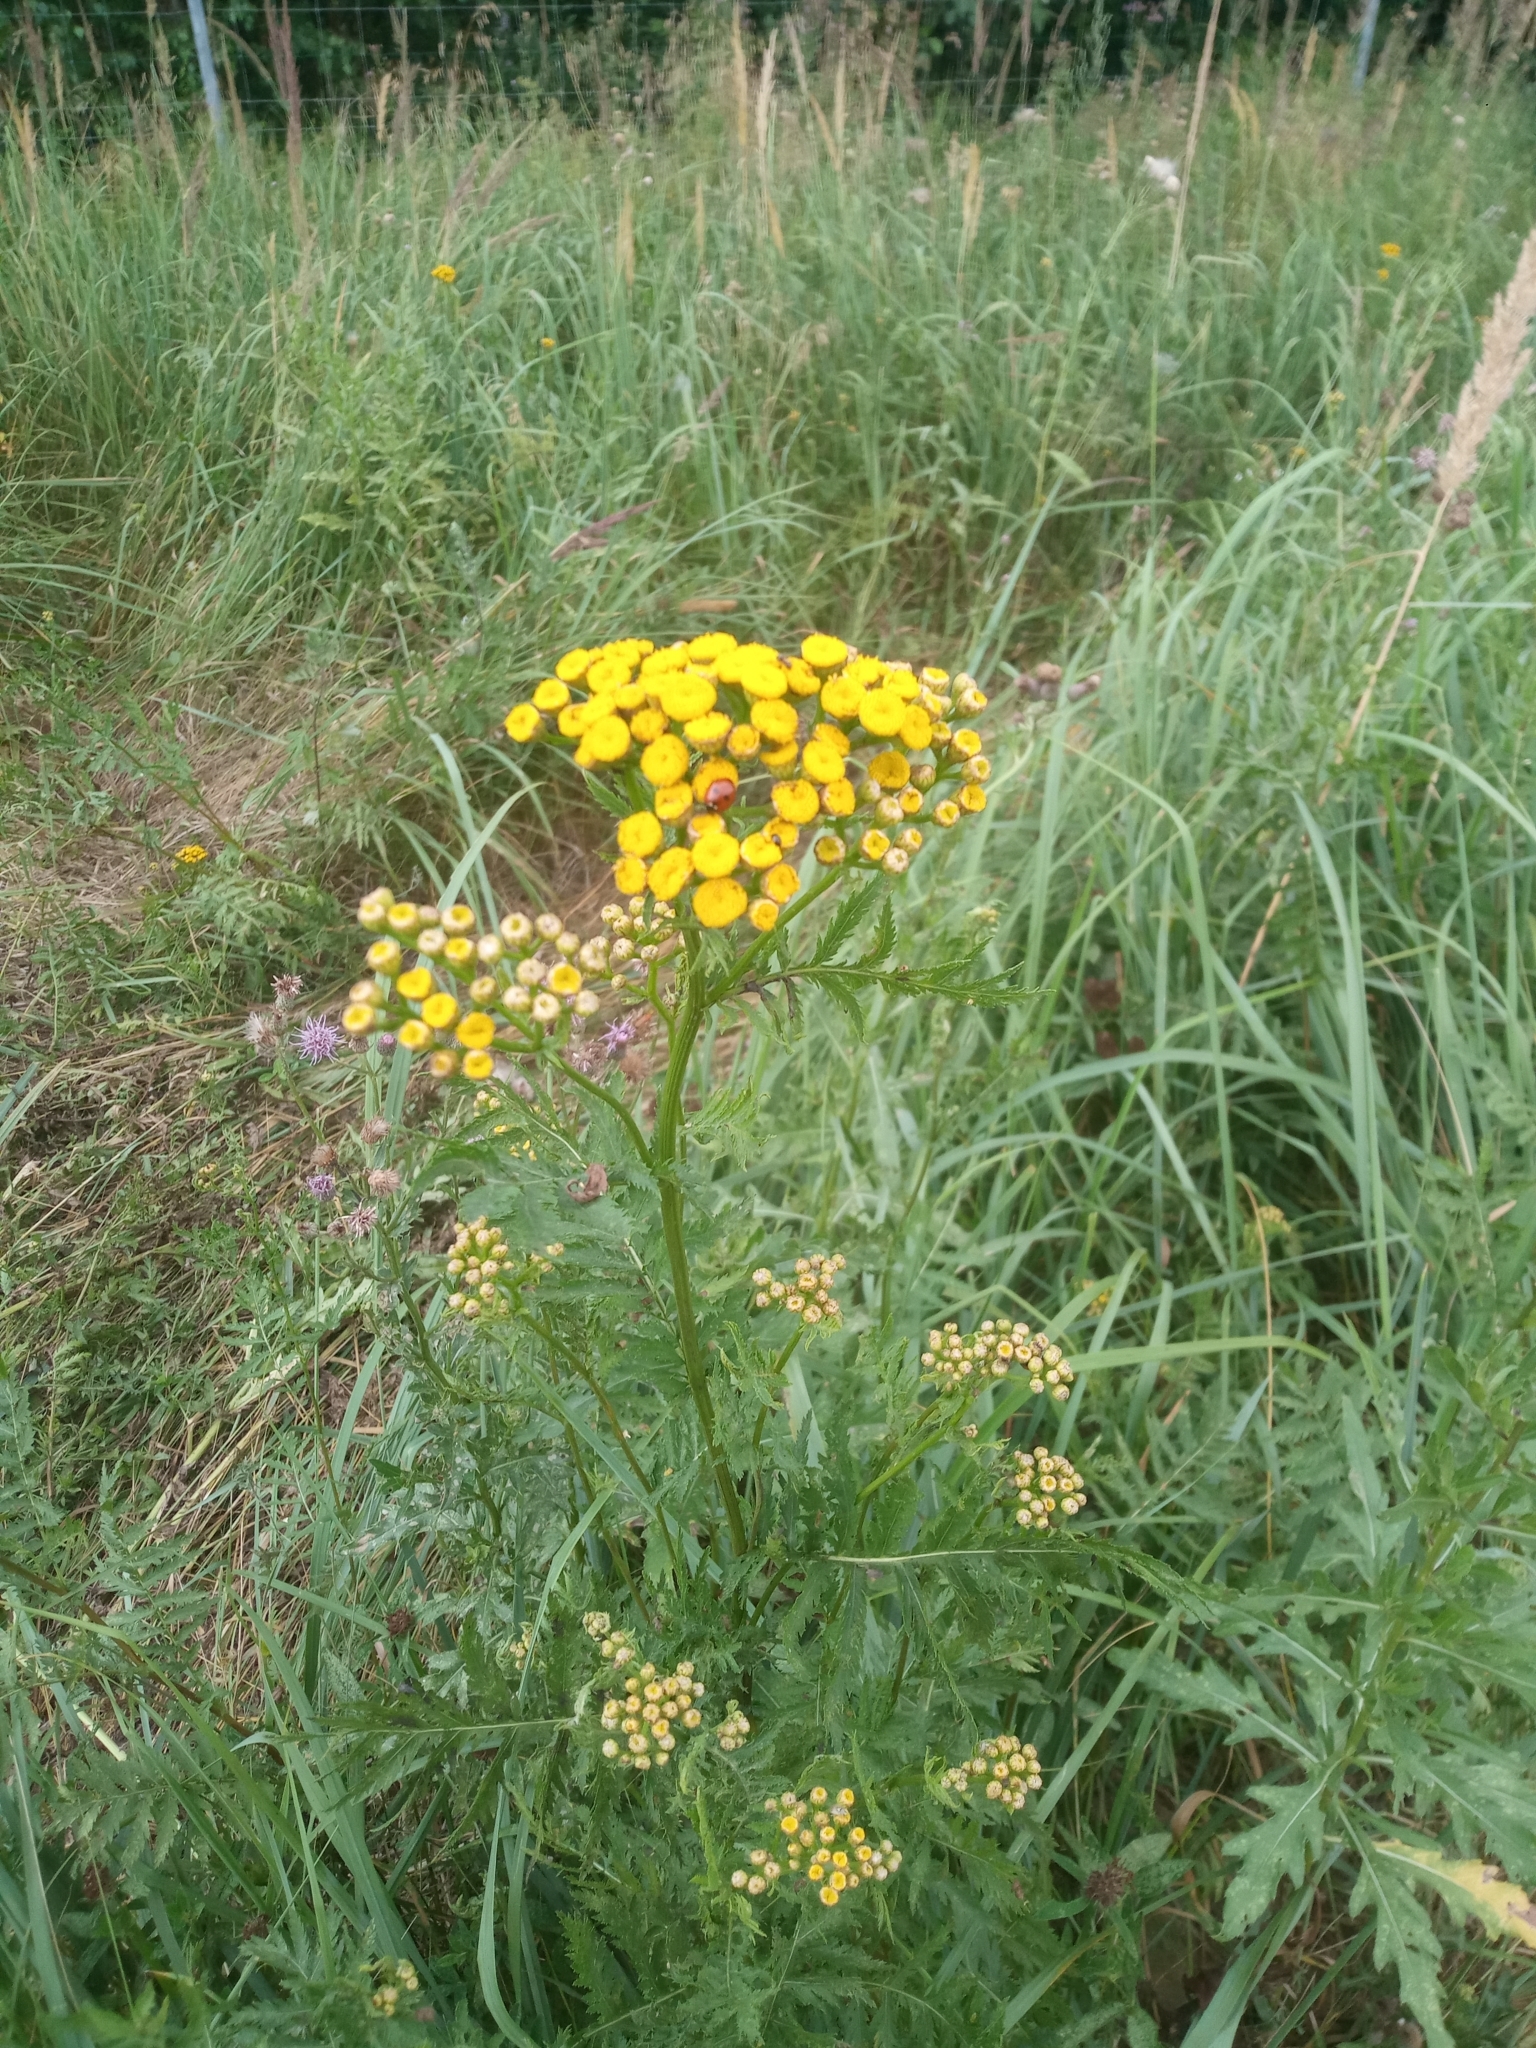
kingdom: Plantae
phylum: Tracheophyta
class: Magnoliopsida
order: Asterales
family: Asteraceae
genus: Tanacetum
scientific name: Tanacetum vulgare
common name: Common tansy
